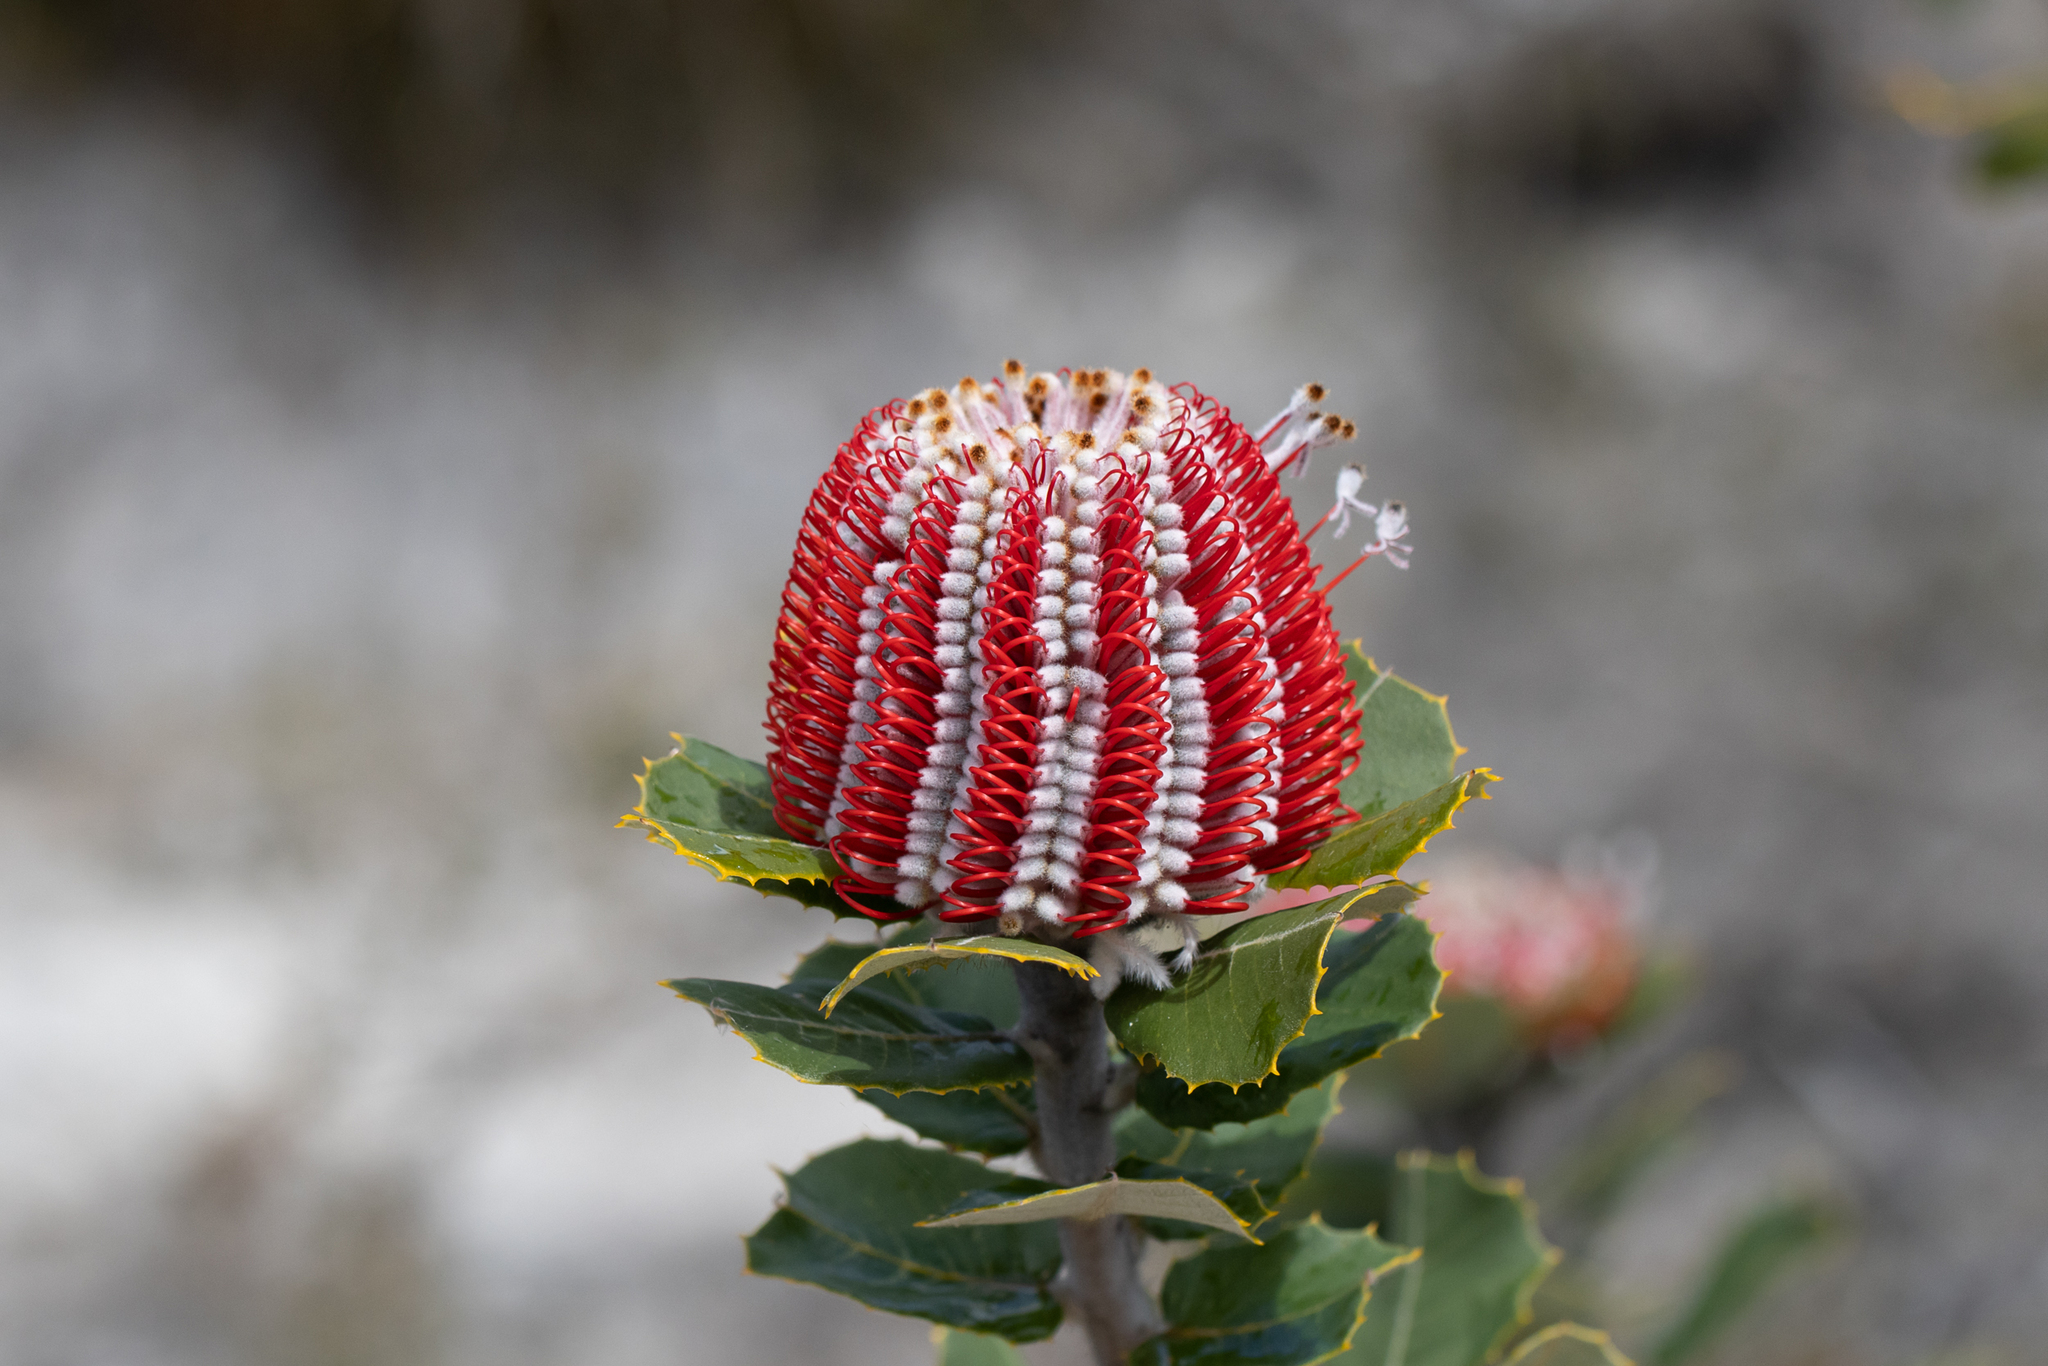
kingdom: Plantae
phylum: Tracheophyta
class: Magnoliopsida
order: Proteales
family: Proteaceae
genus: Banksia
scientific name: Banksia coccinea
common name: Scarlet banksia
